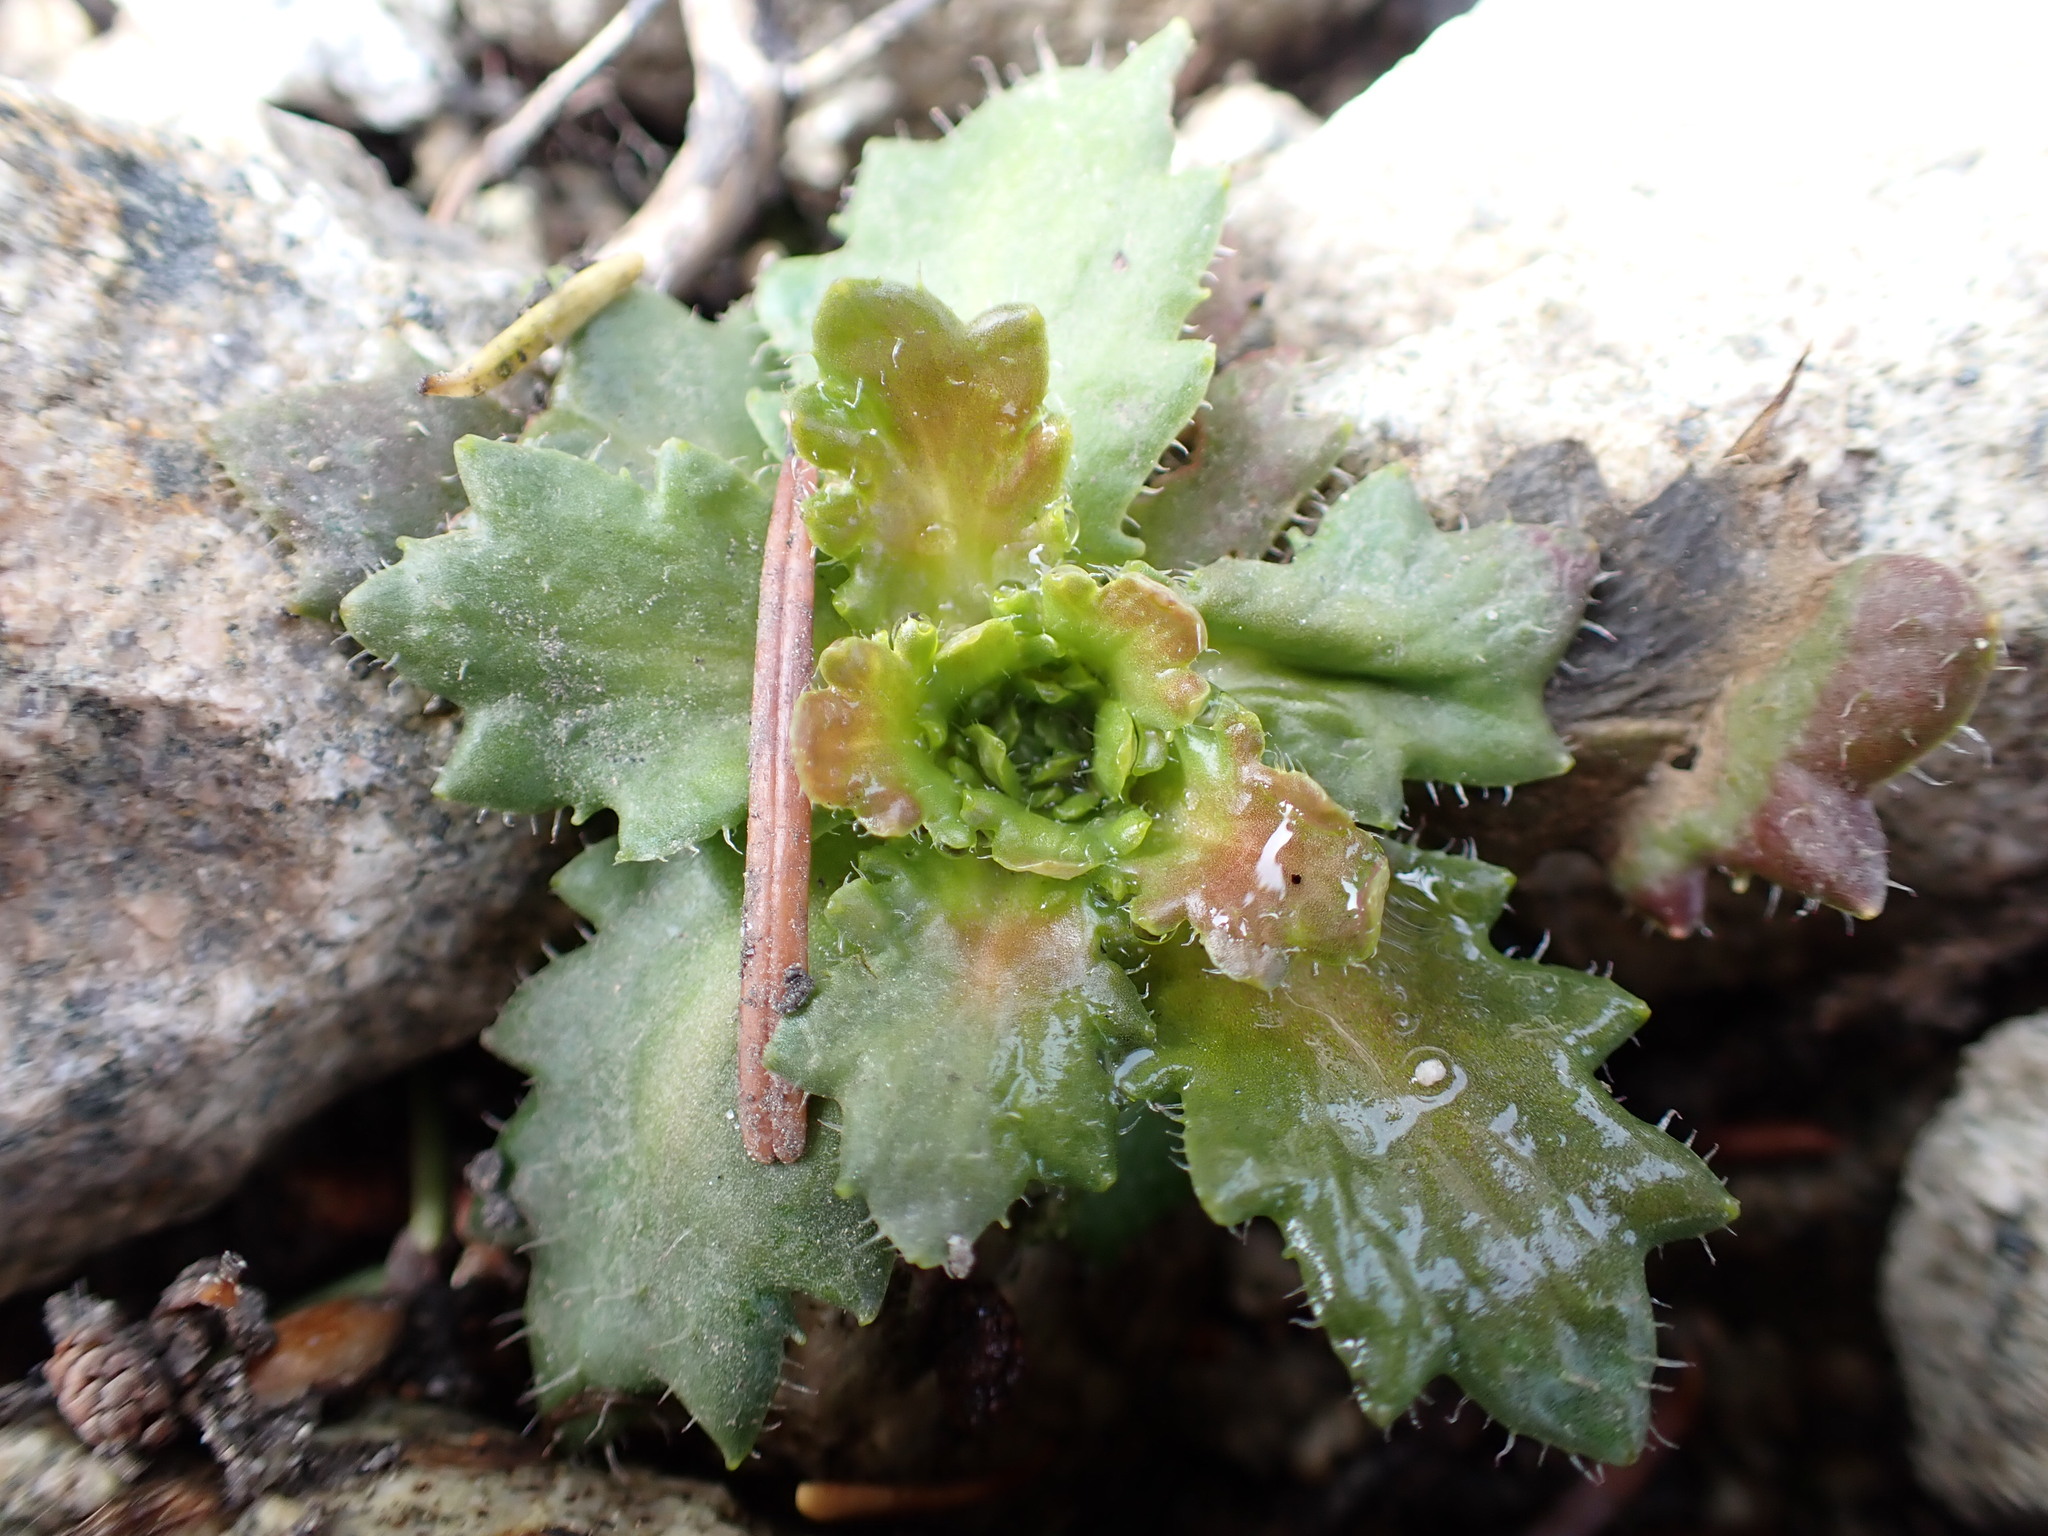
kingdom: Plantae
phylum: Tracheophyta
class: Magnoliopsida
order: Saxifragales
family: Saxifragaceae
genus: Micranthes
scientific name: Micranthes ferruginea
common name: Rusty saxifrage
